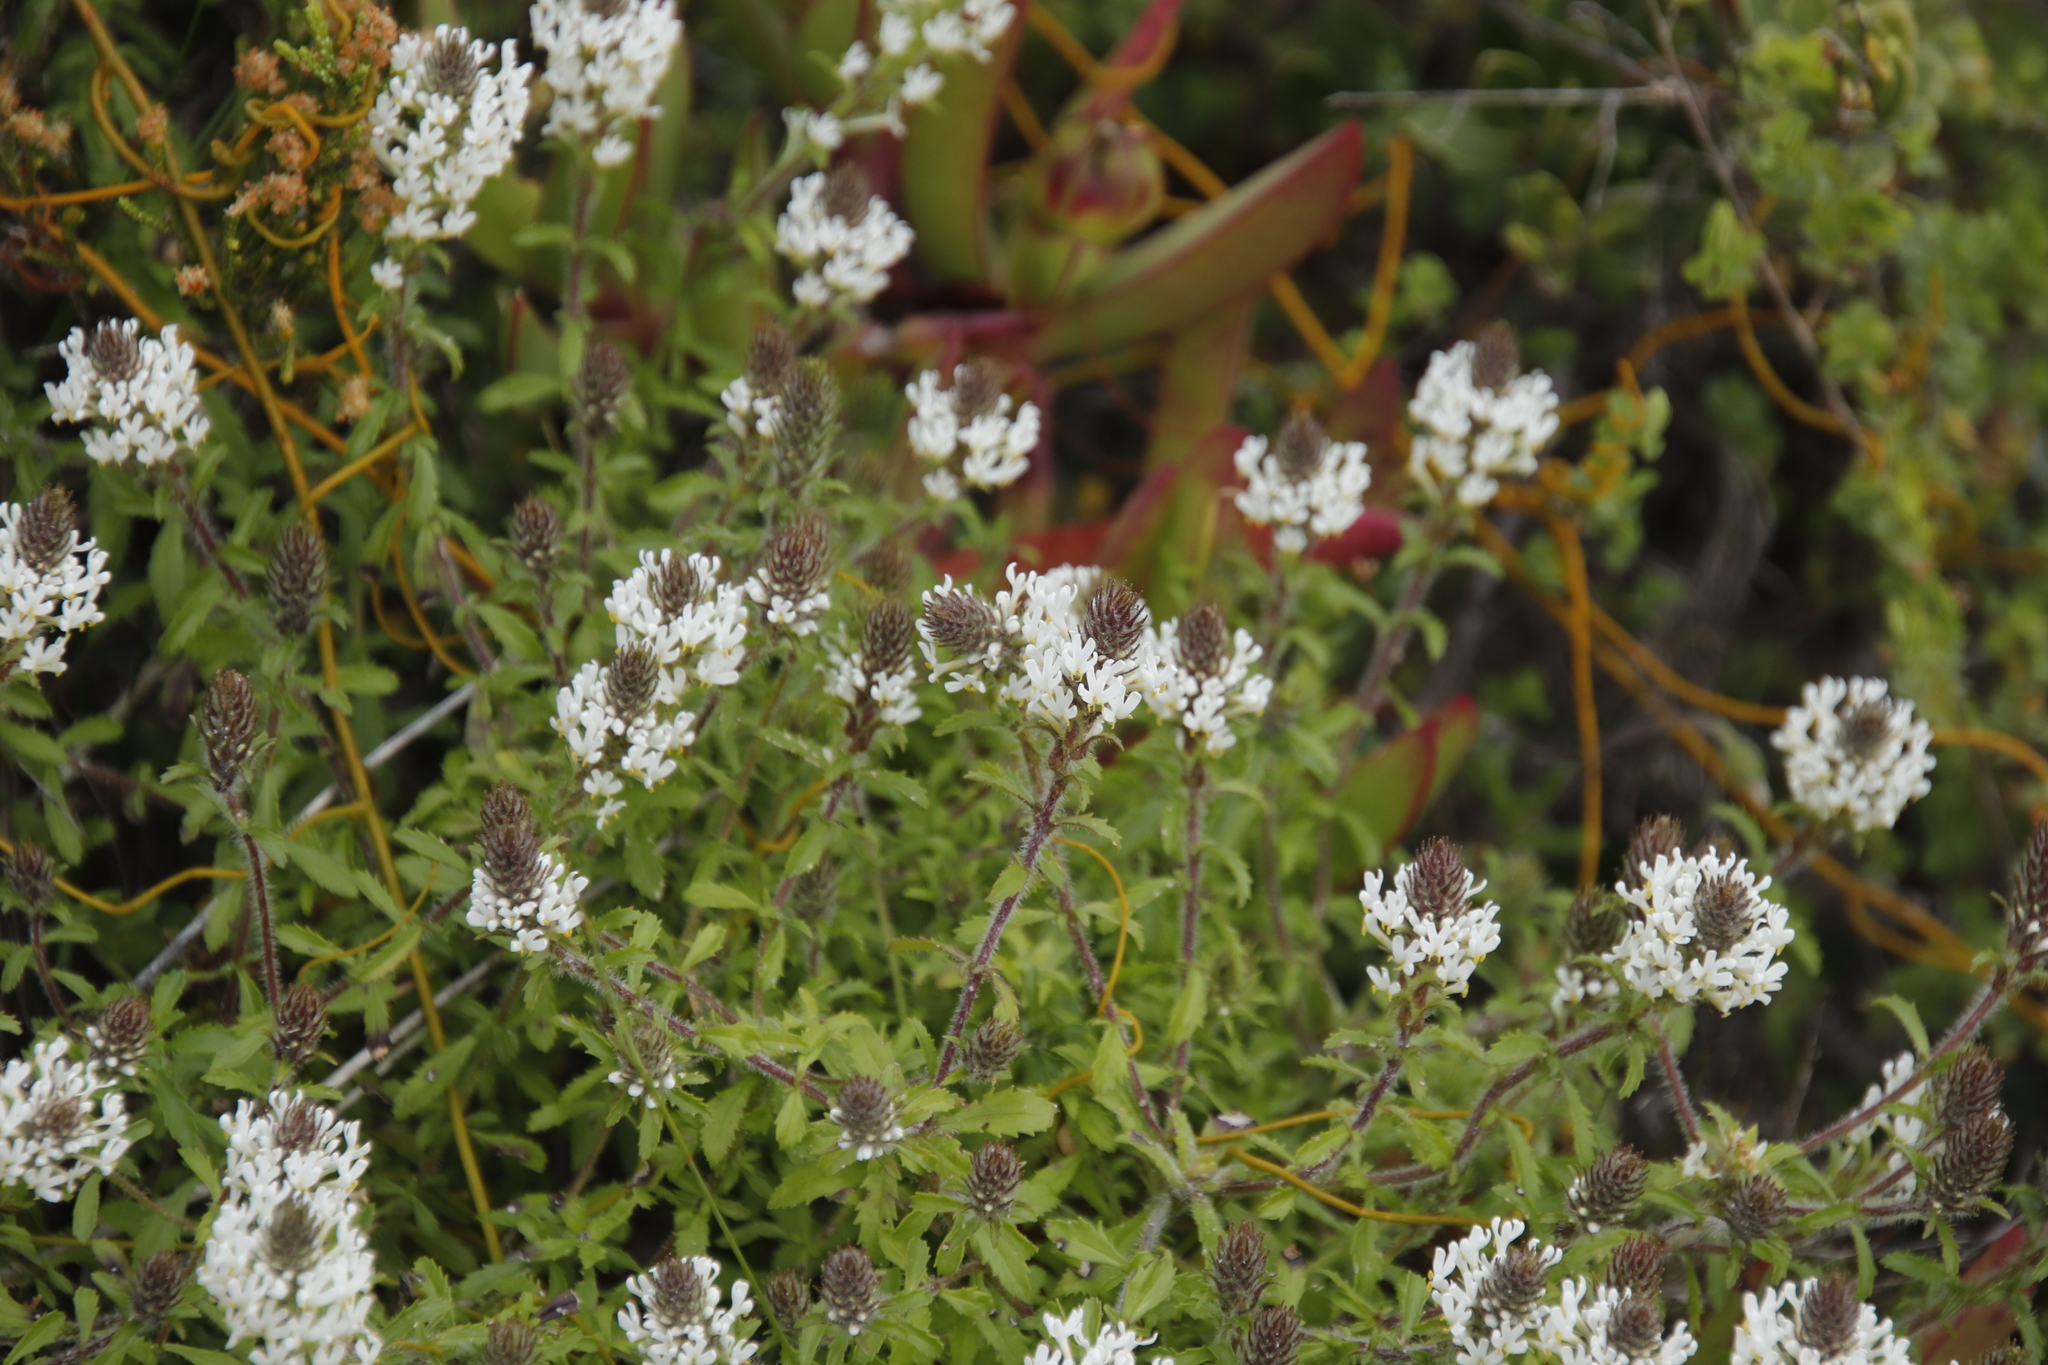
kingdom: Plantae
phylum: Tracheophyta
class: Magnoliopsida
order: Lamiales
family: Scrophulariaceae
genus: Dischisma
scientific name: Dischisma ciliatum
